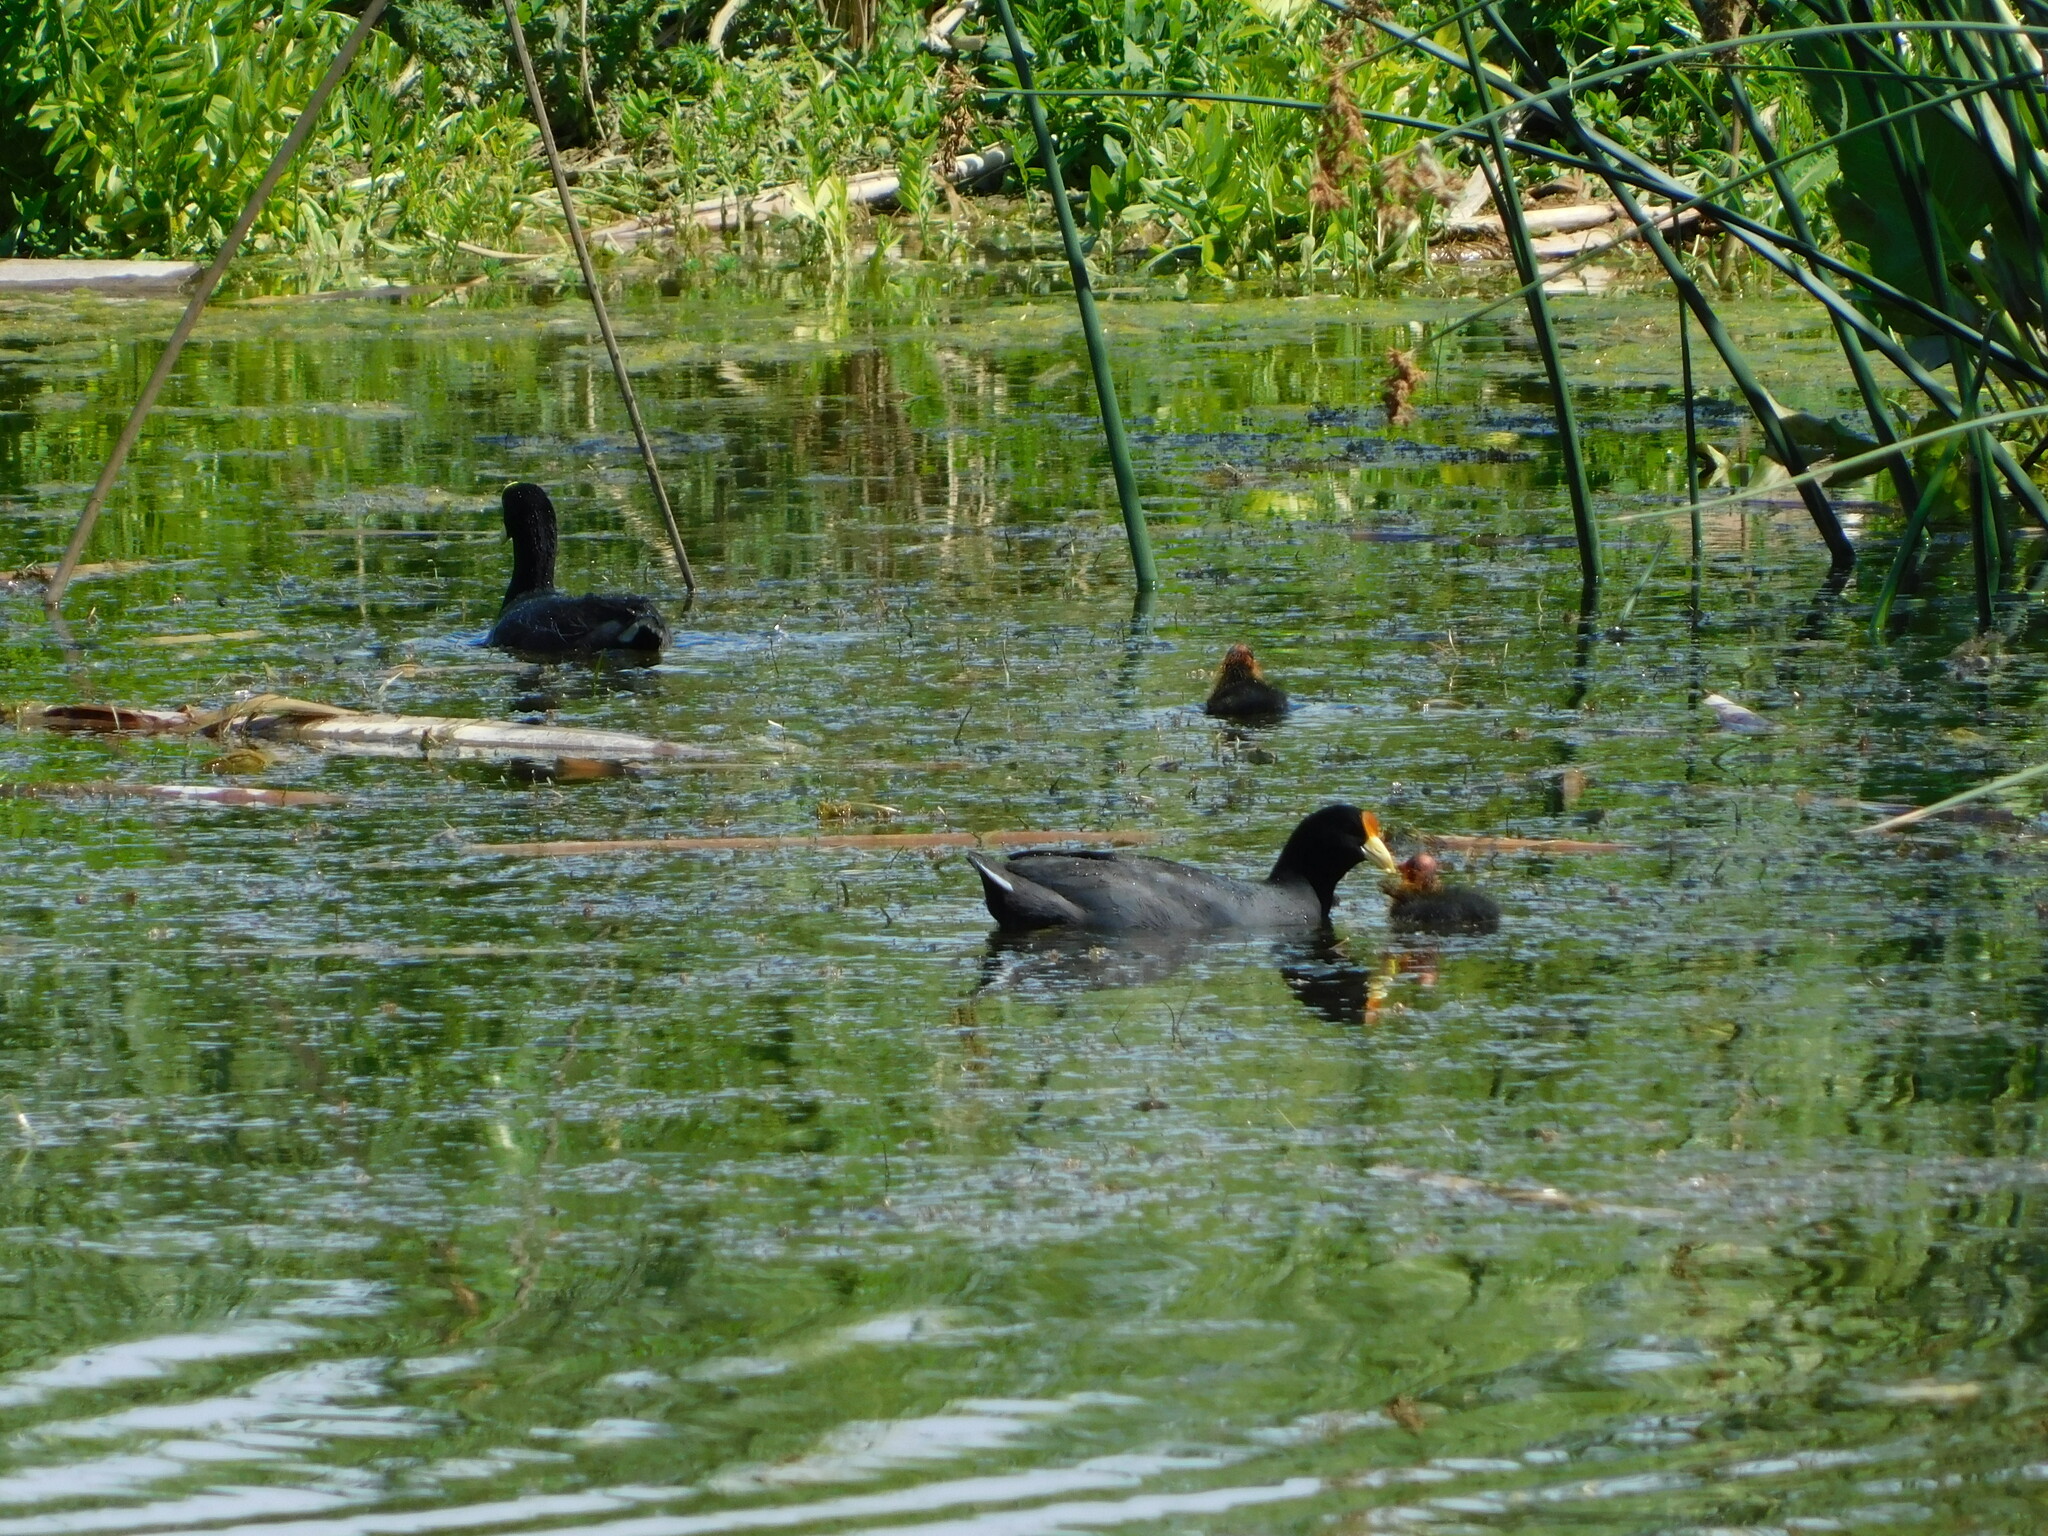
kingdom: Animalia
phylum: Chordata
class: Aves
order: Gruiformes
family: Rallidae
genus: Fulica
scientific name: Fulica leucoptera
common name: White-winged coot
